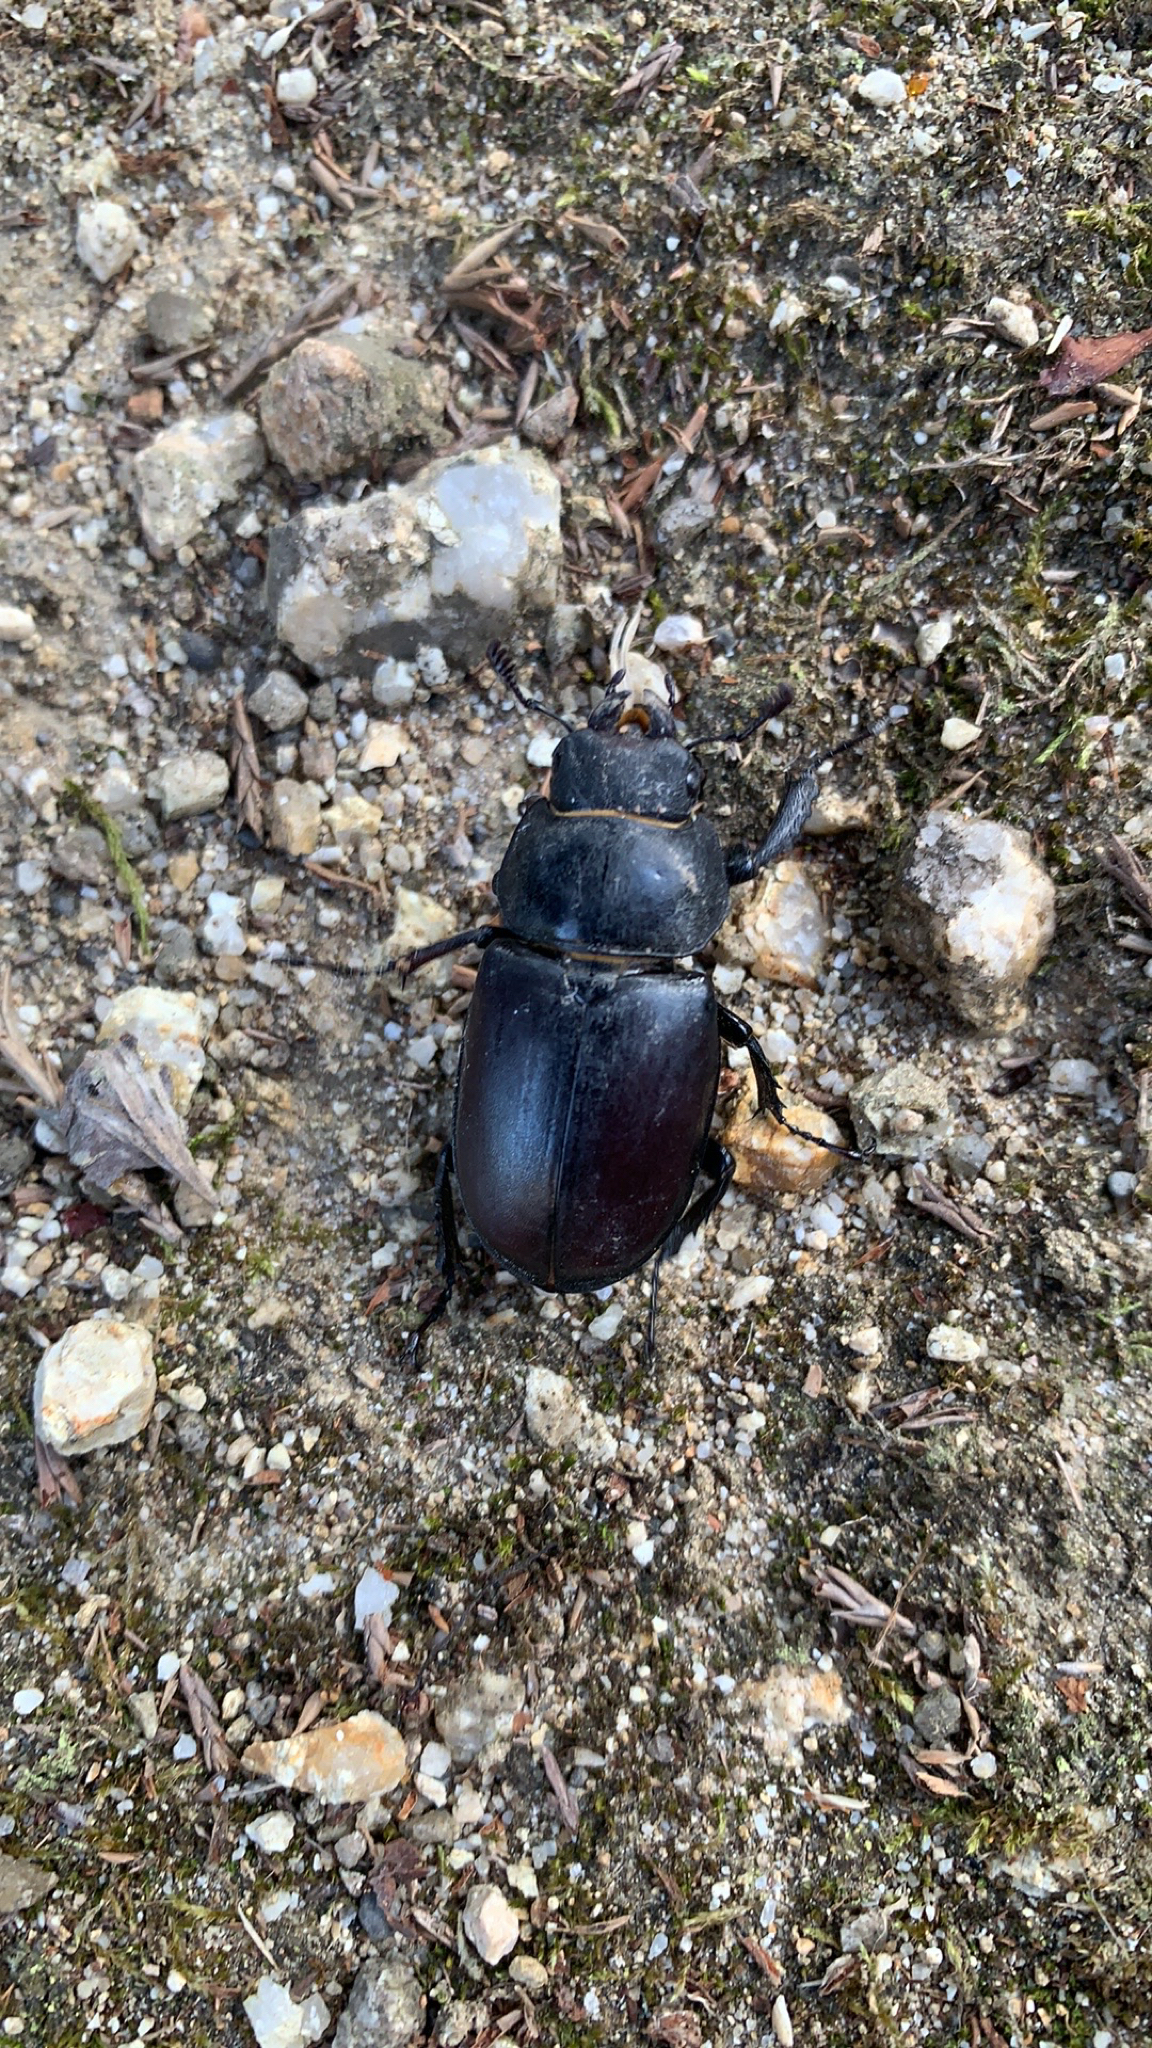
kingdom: Animalia
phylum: Arthropoda
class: Insecta
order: Coleoptera
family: Lucanidae
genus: Lucanus
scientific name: Lucanus cervus
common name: Stag beetle
